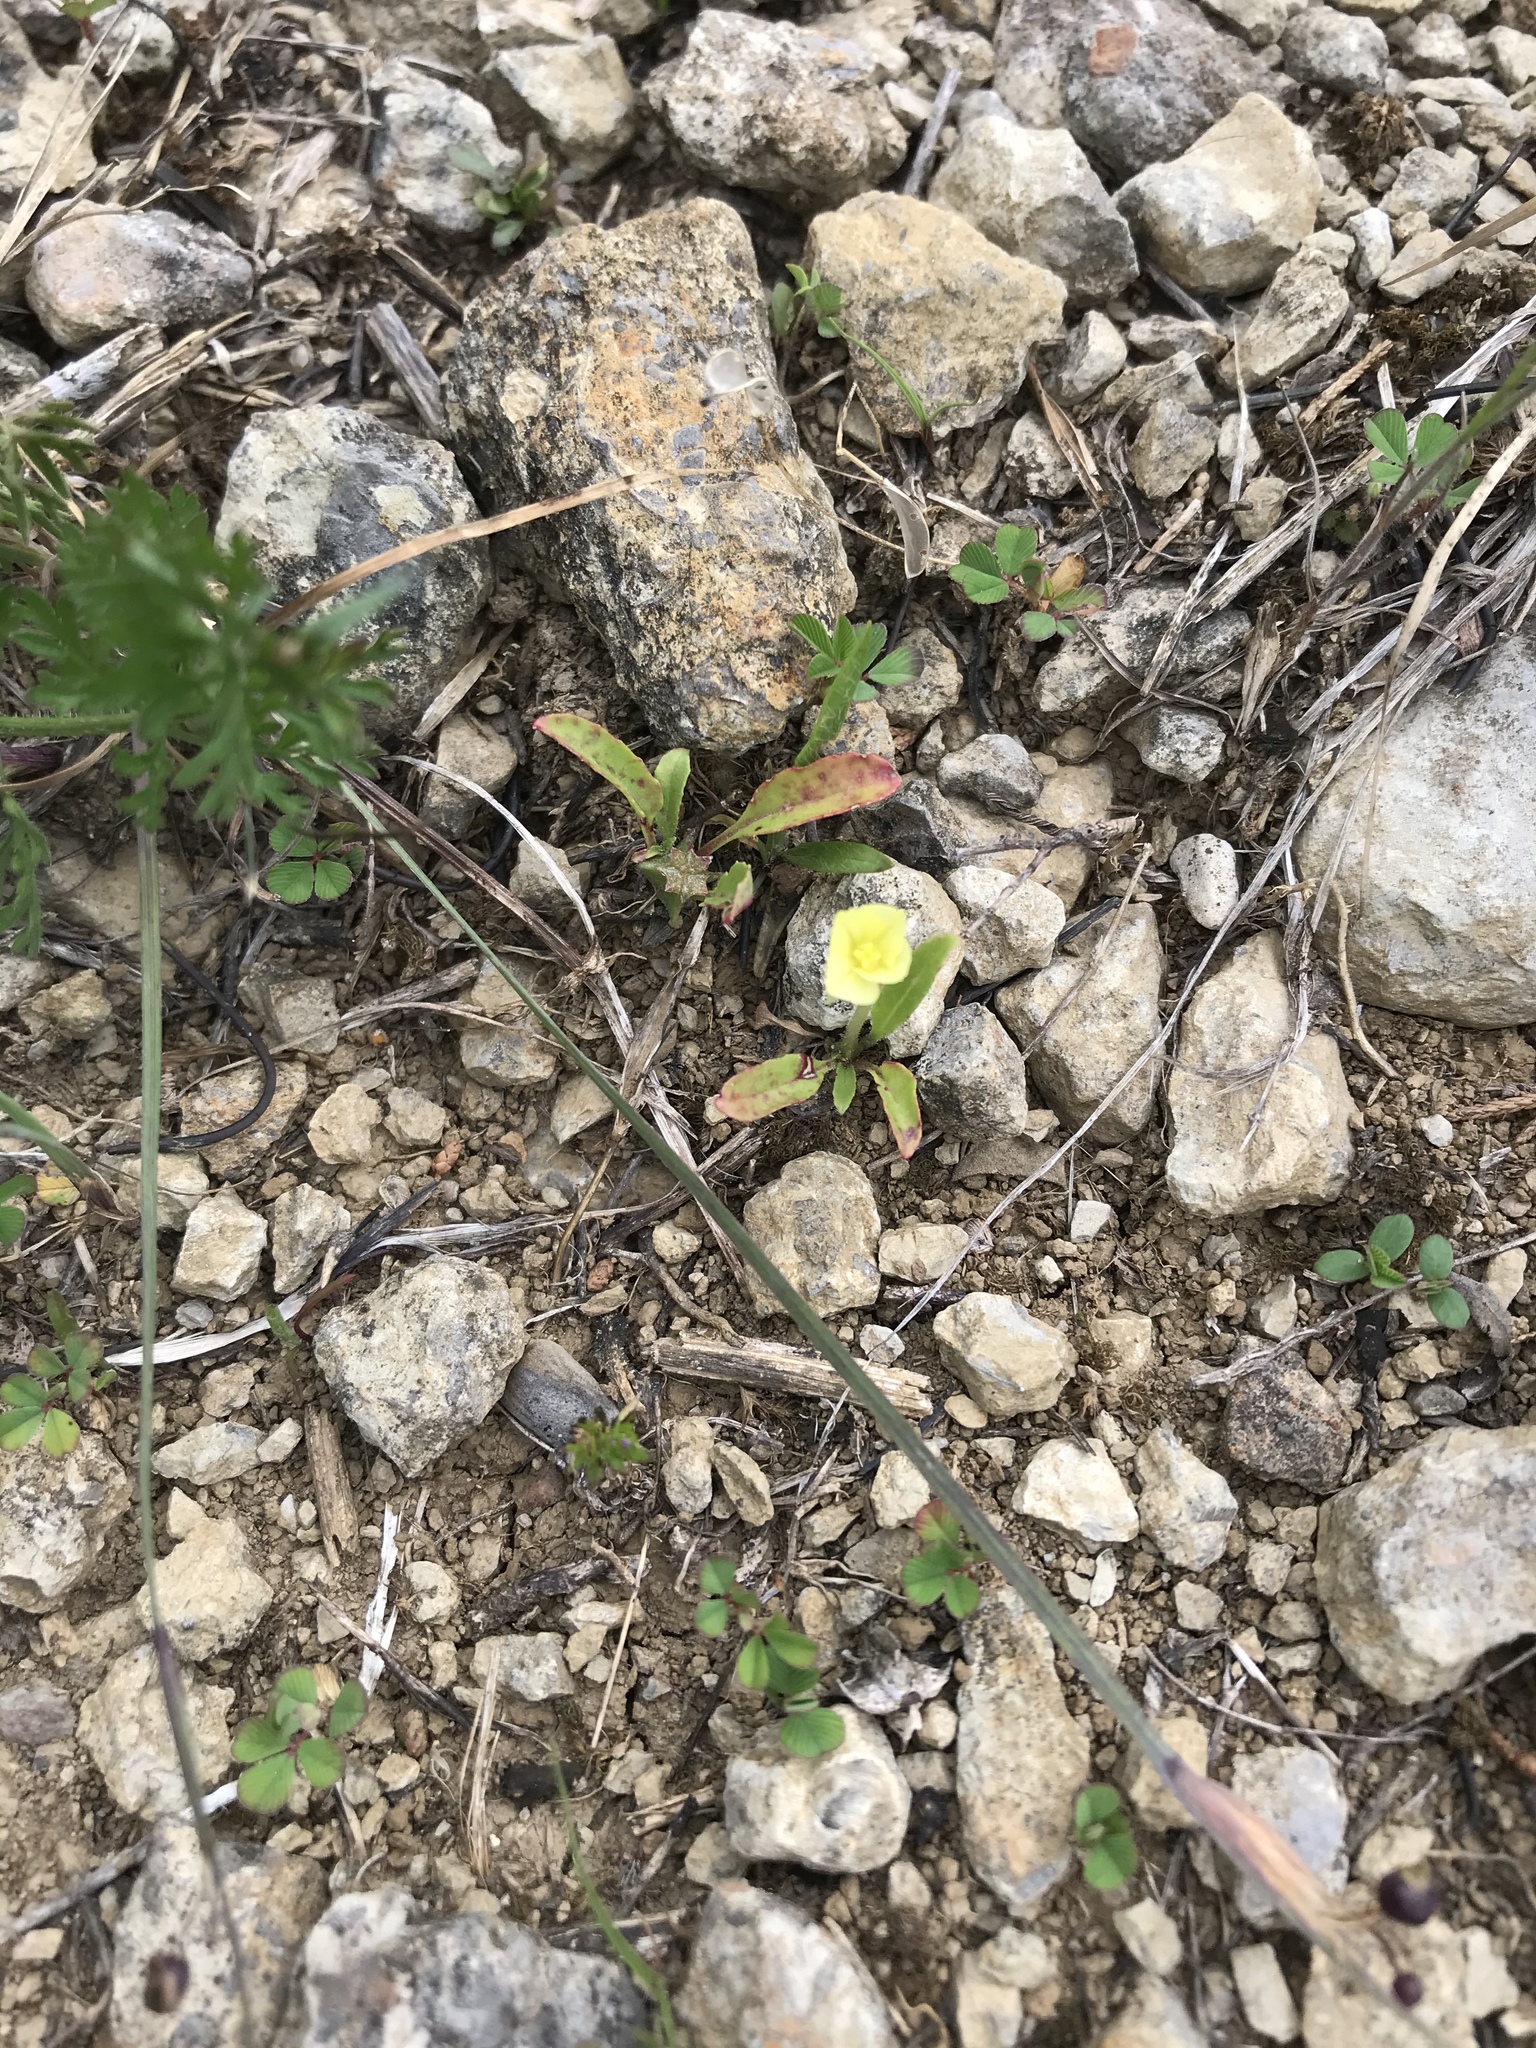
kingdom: Plantae
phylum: Tracheophyta
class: Magnoliopsida
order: Myrtales
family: Onagraceae
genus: Oenothera
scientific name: Oenothera triloba
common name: Sessile evening-primrose
